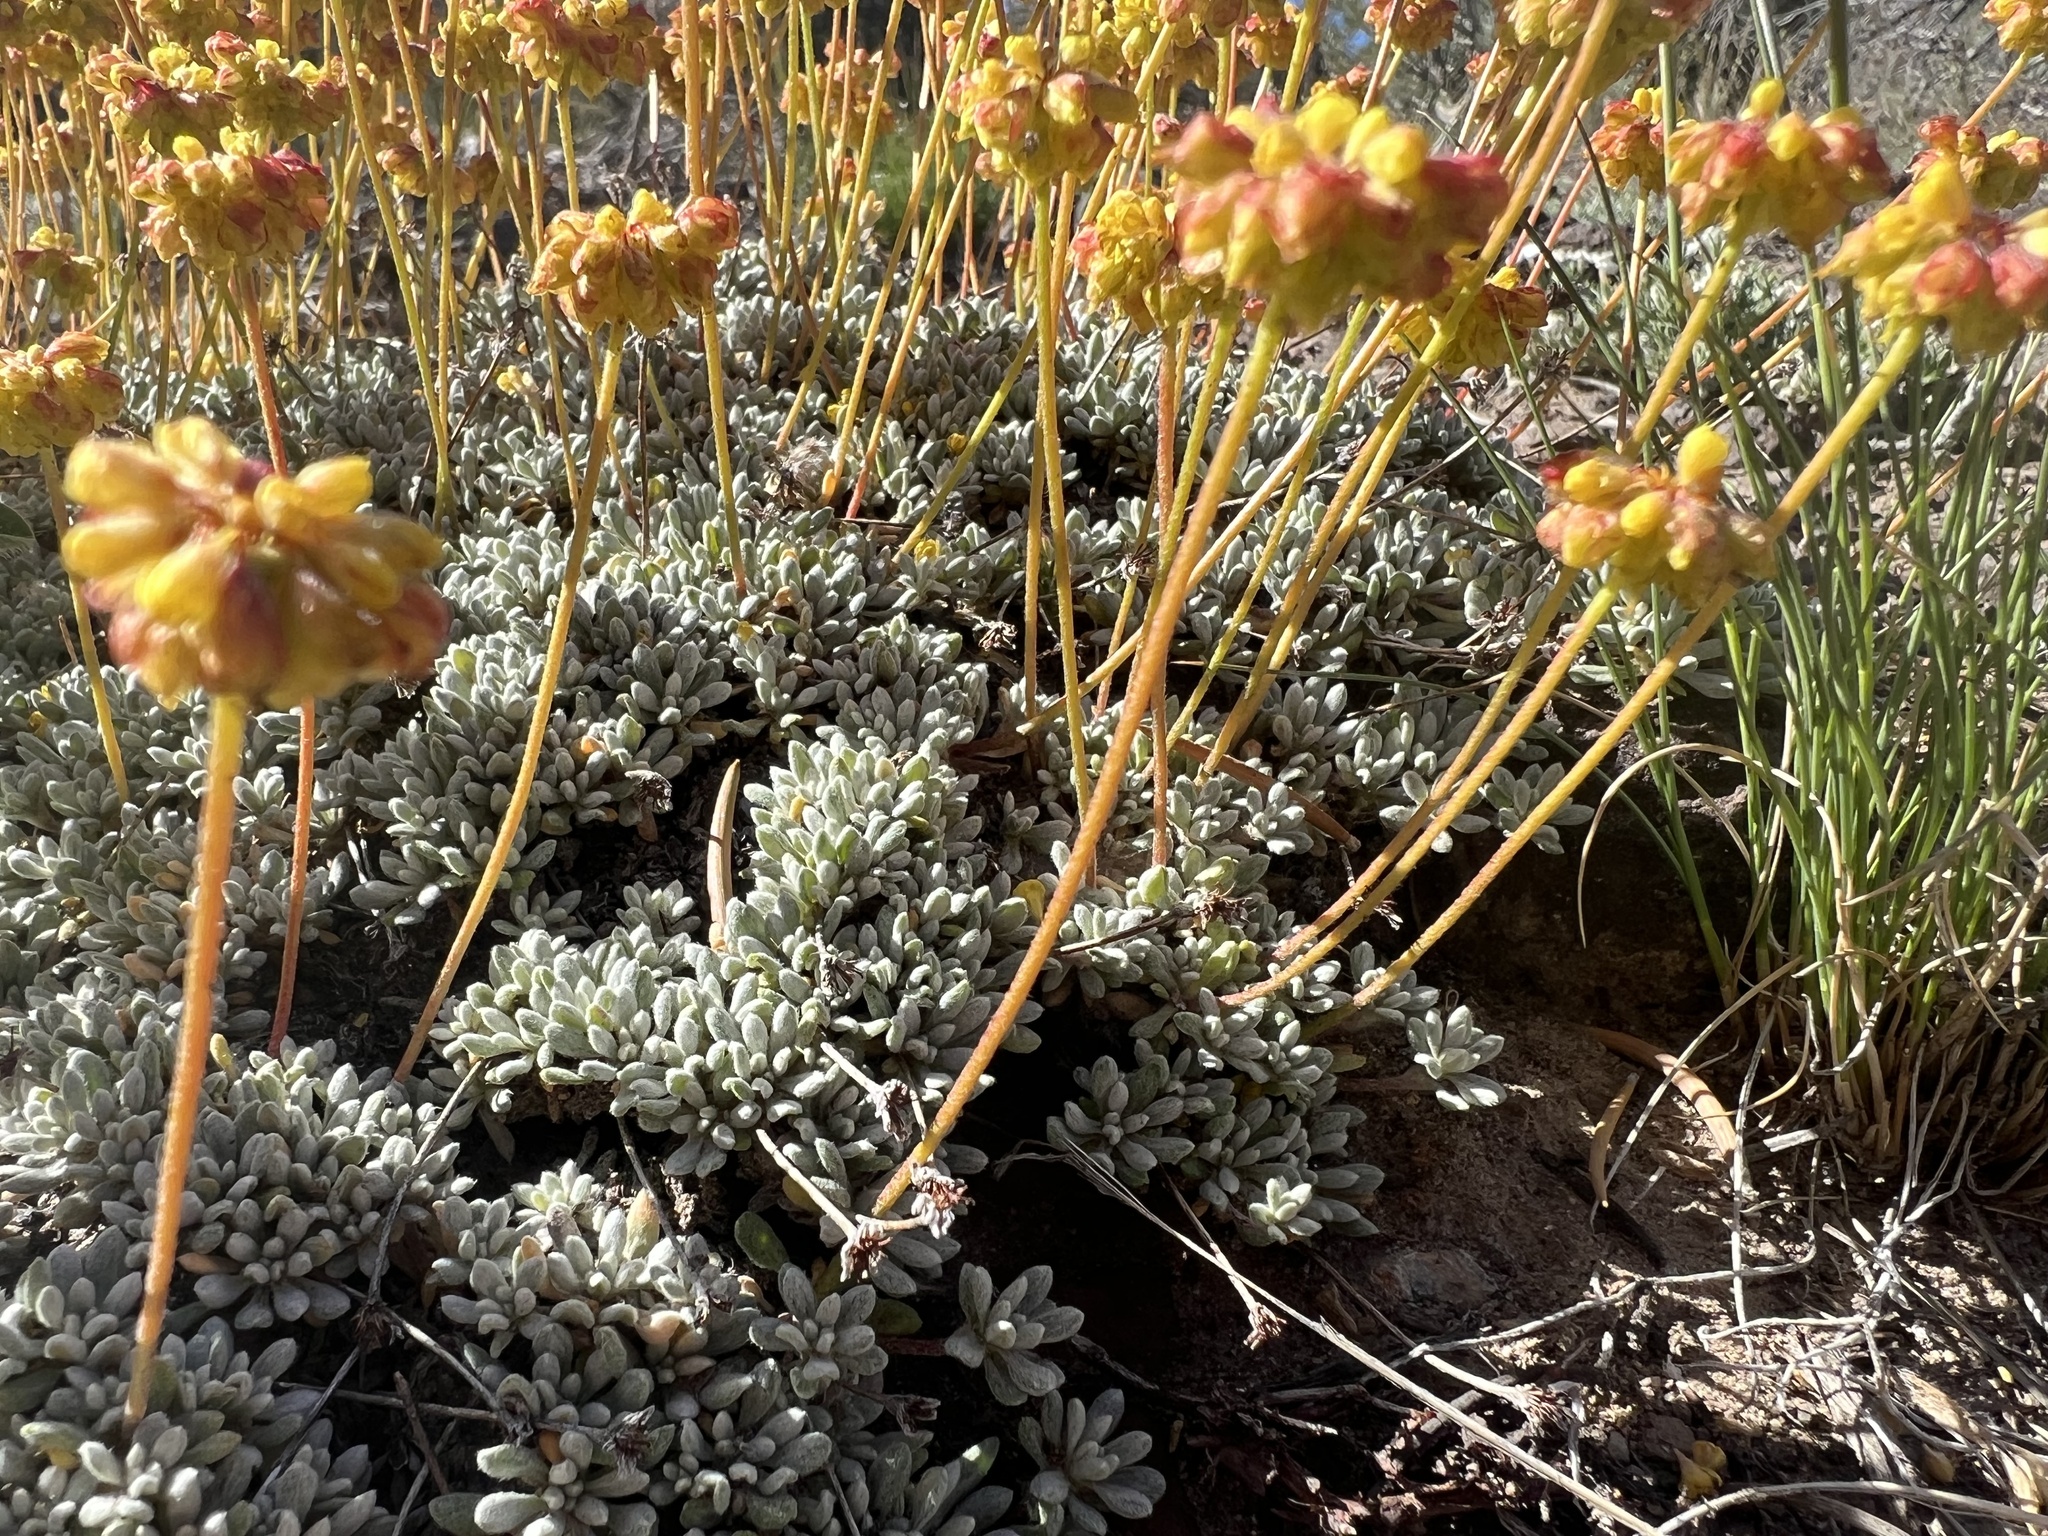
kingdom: Plantae
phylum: Tracheophyta
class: Magnoliopsida
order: Caryophyllales
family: Polygonaceae
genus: Eriogonum
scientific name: Eriogonum caespitosum
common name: Matted wild buckwheat
